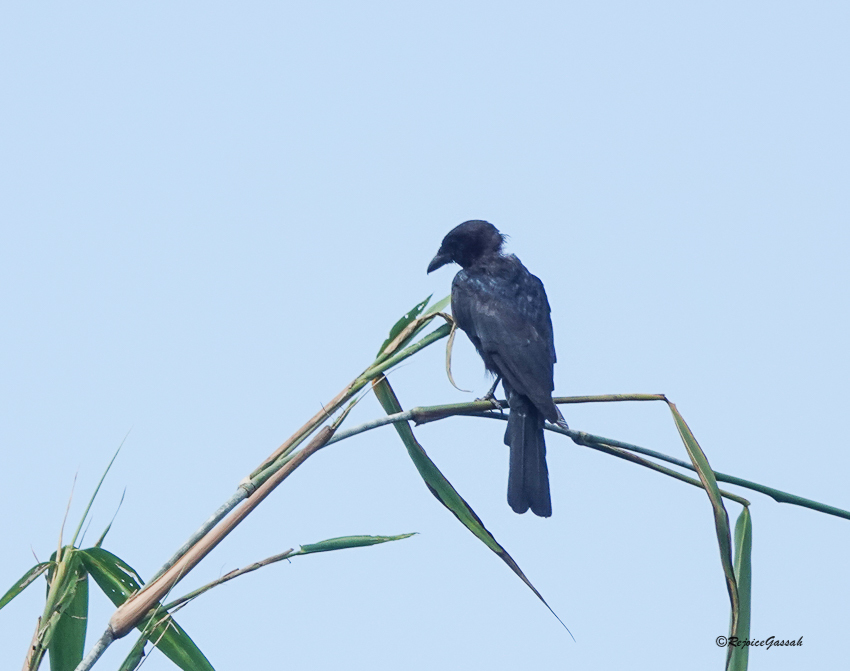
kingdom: Animalia
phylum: Chordata
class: Aves
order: Passeriformes
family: Dicruridae
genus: Dicrurus
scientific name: Dicrurus macrocercus
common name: Black drongo
